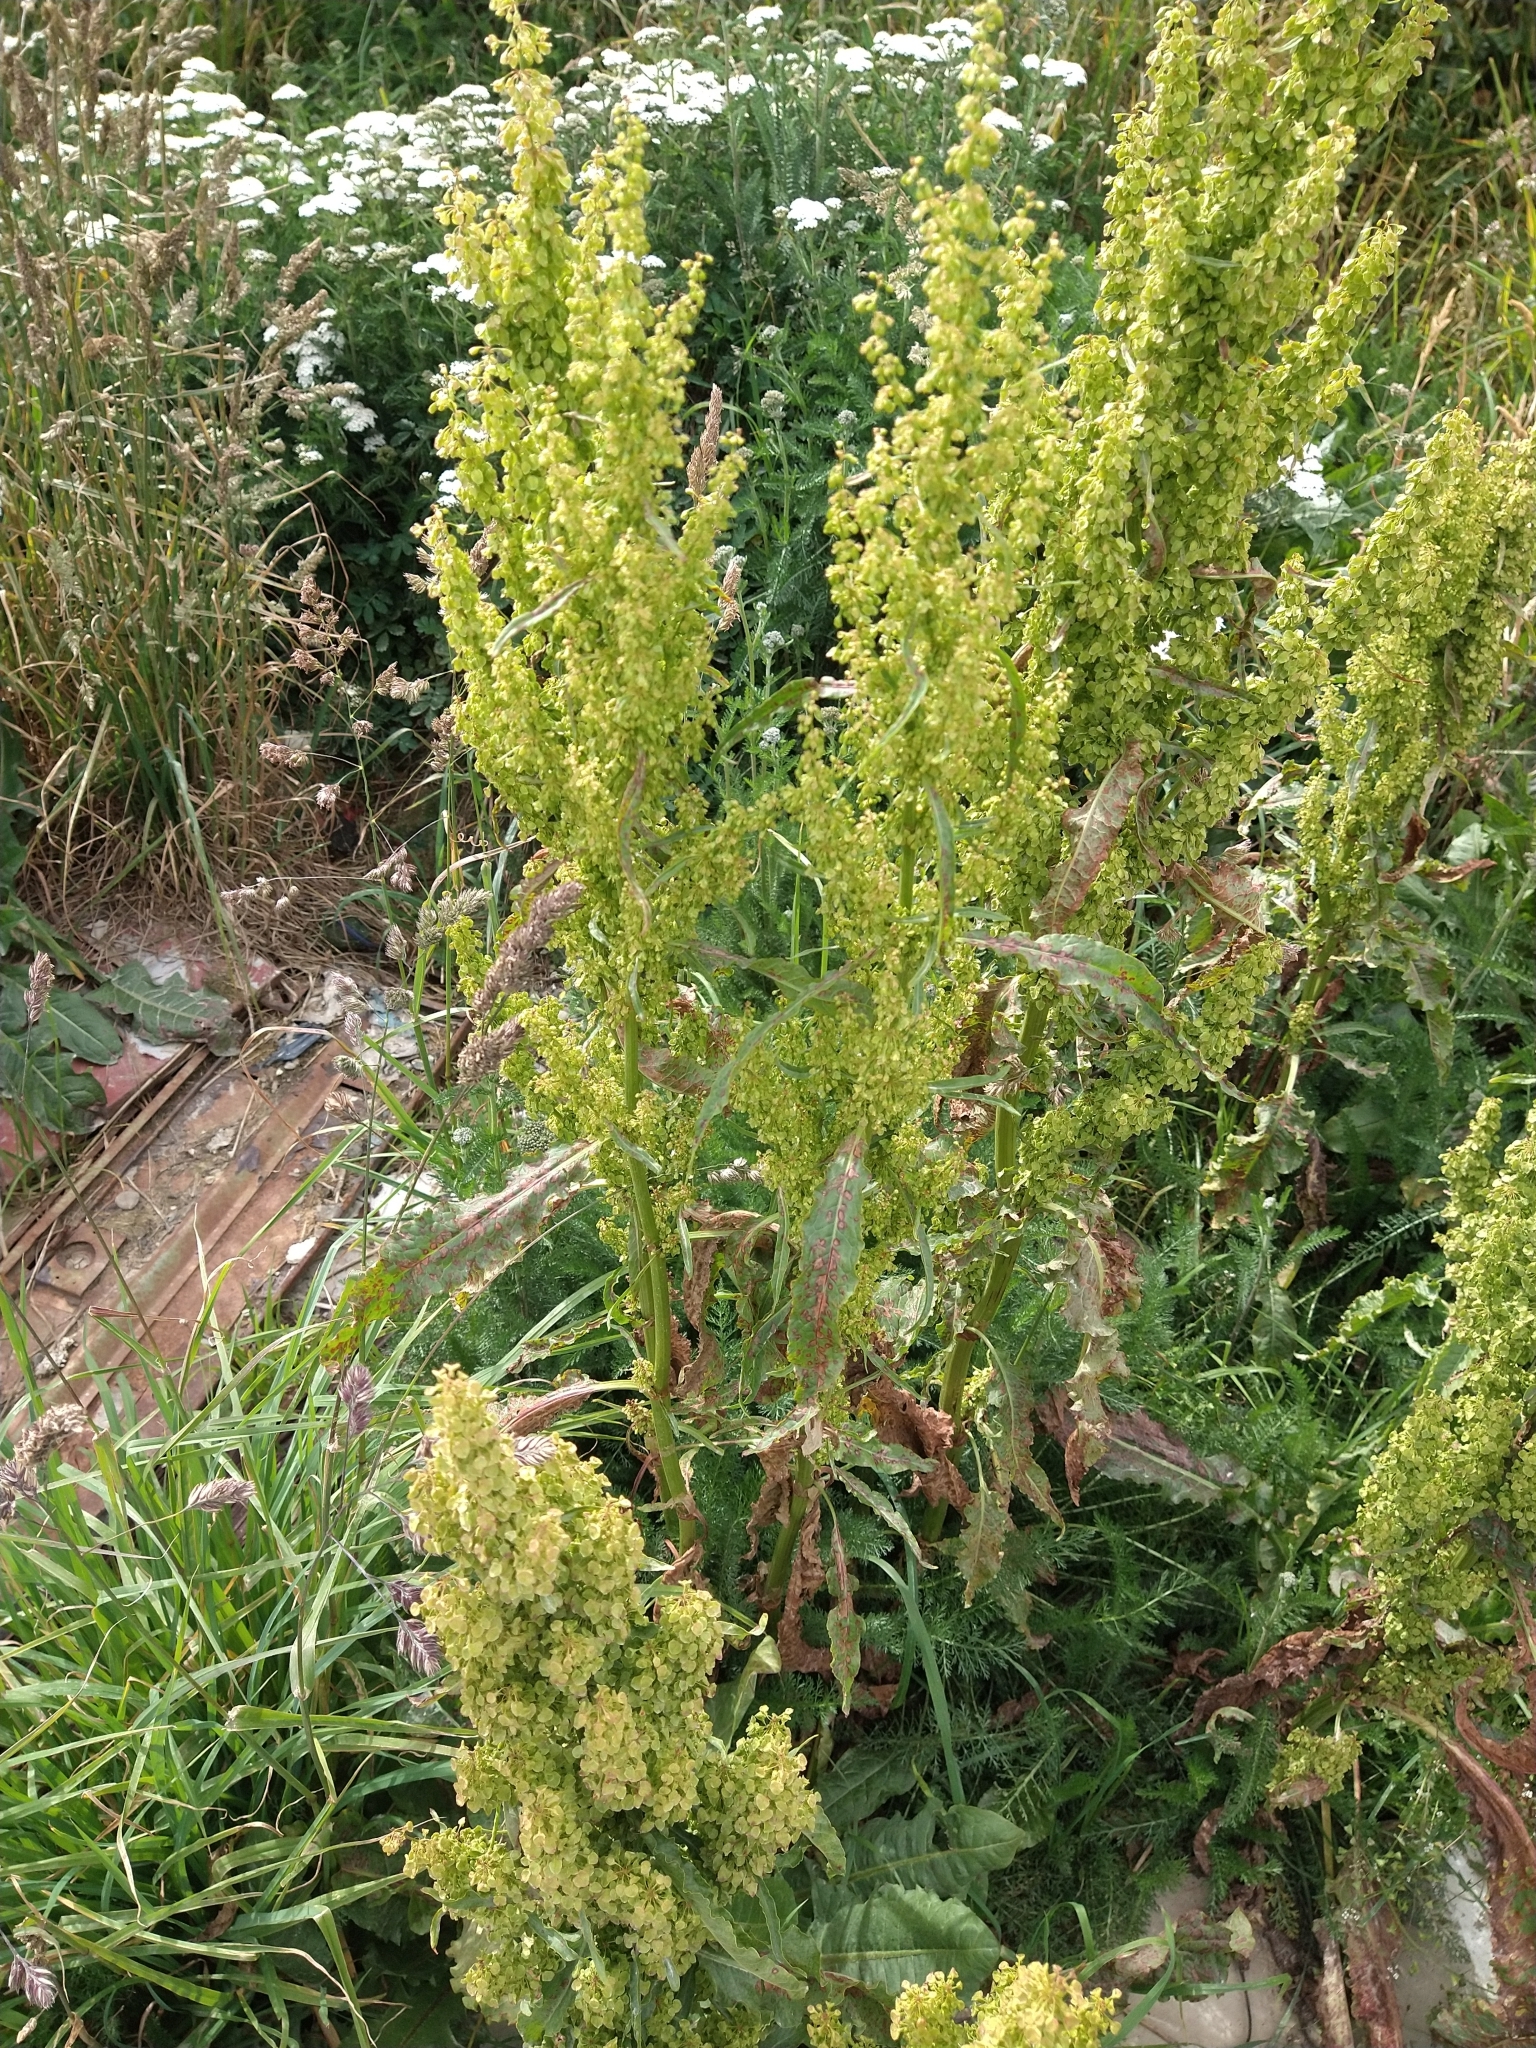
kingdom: Plantae
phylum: Tracheophyta
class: Magnoliopsida
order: Caryophyllales
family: Polygonaceae
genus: Rumex
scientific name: Rumex crispus
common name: Curled dock
